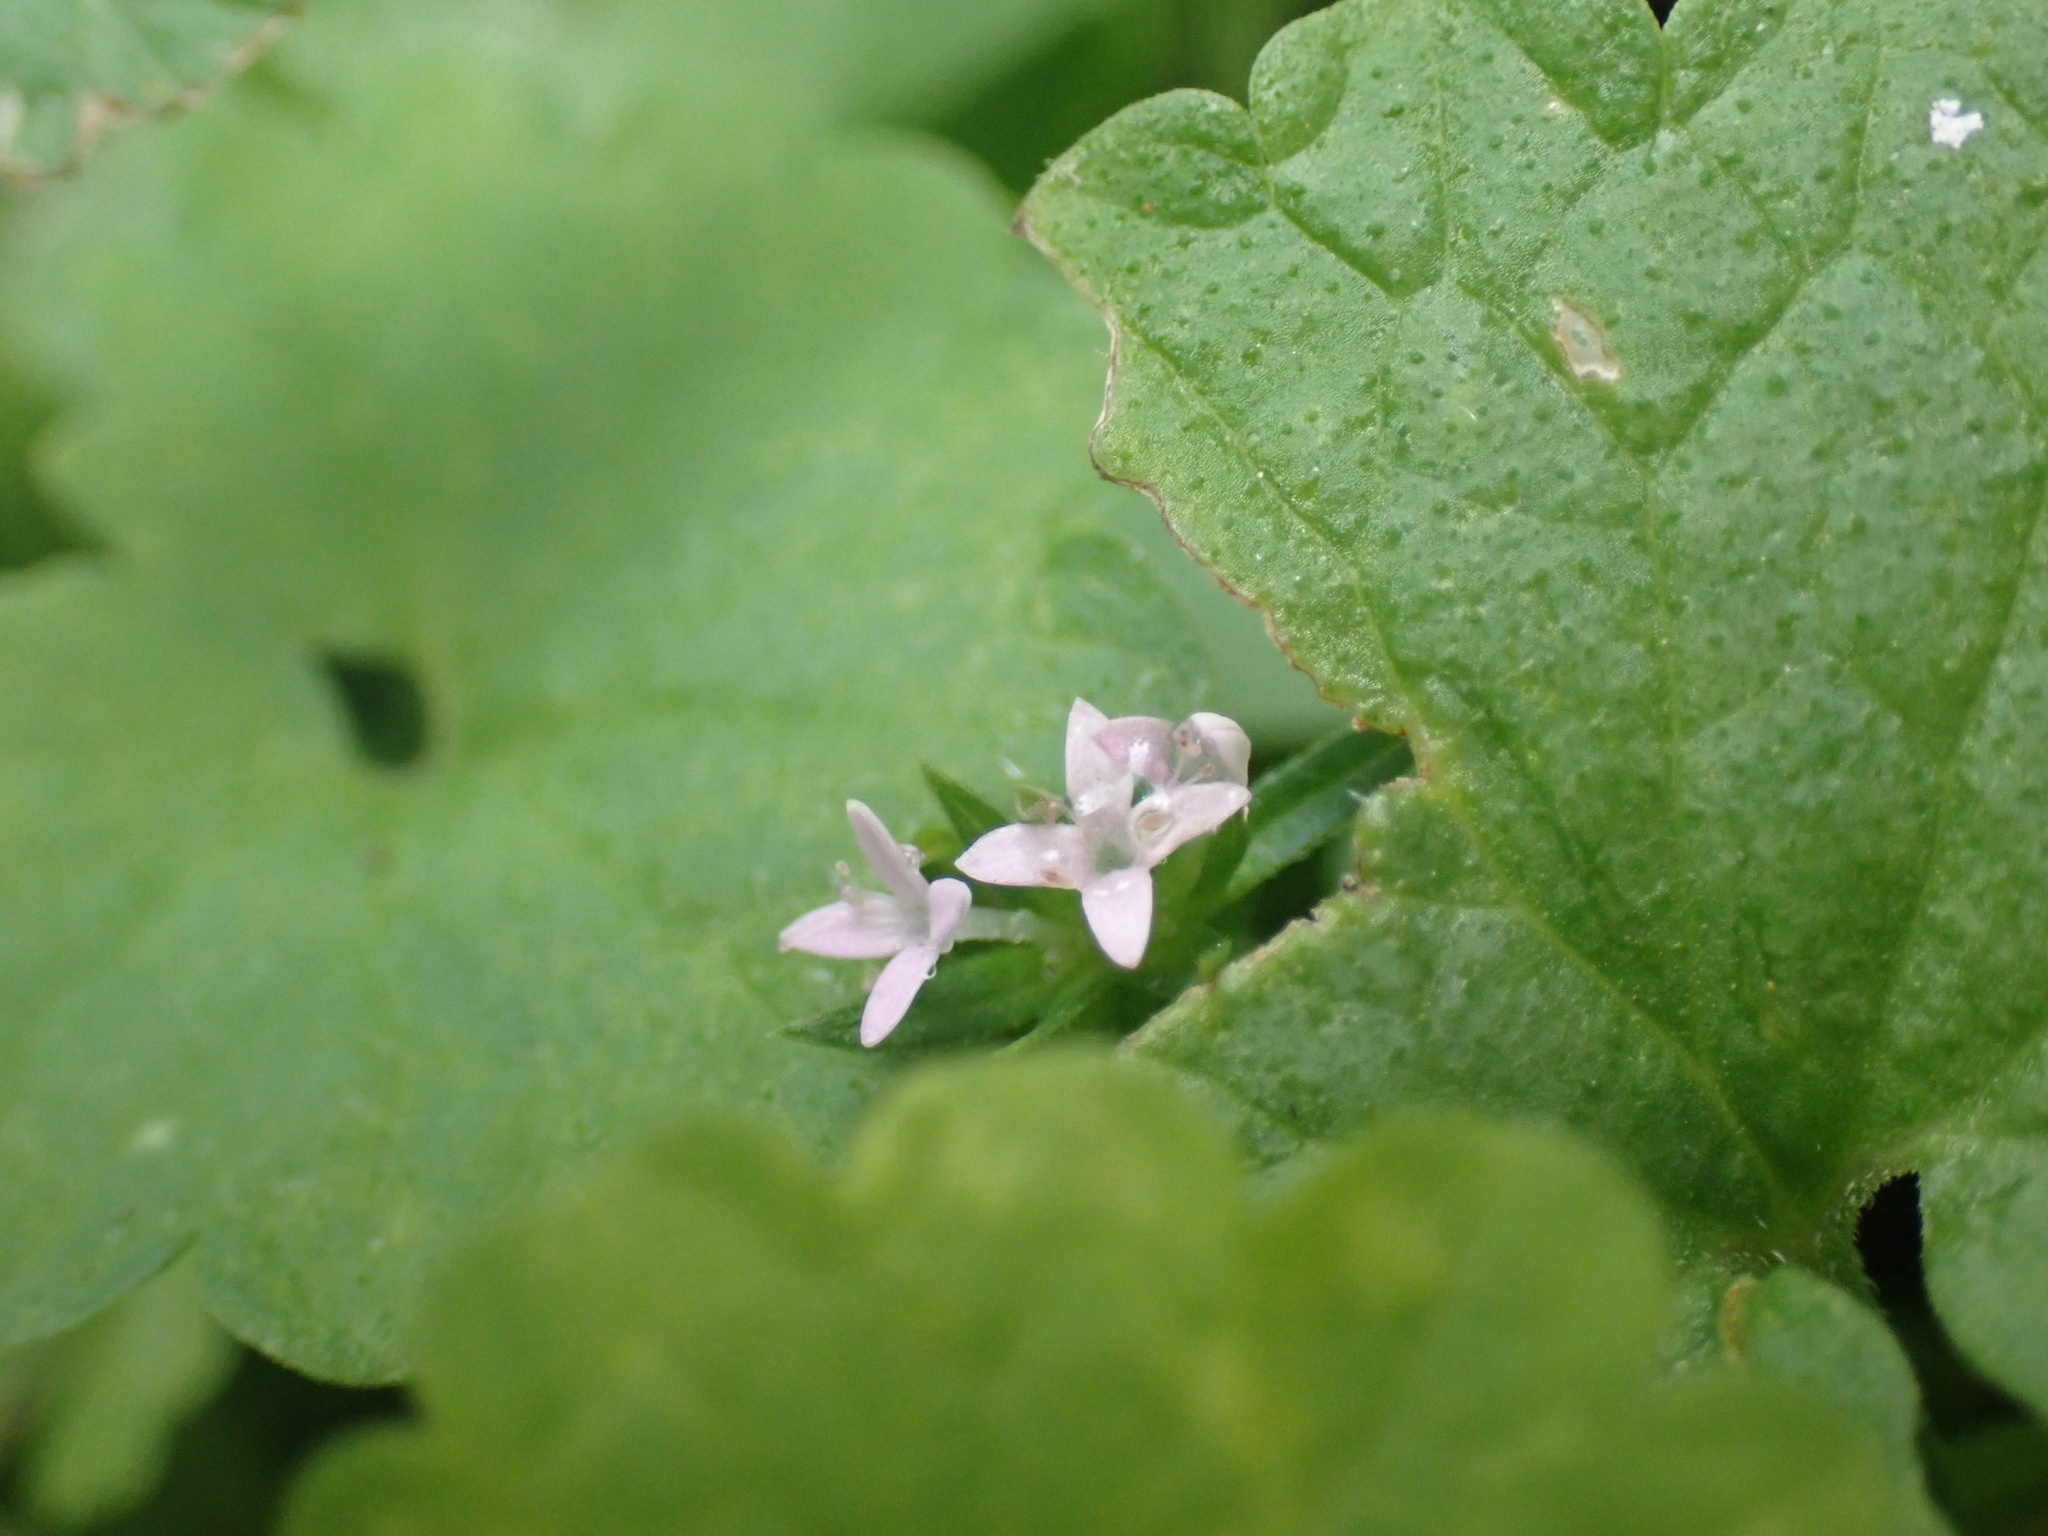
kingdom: Plantae
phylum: Tracheophyta
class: Magnoliopsida
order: Gentianales
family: Rubiaceae
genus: Sherardia
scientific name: Sherardia arvensis
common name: Field madder
